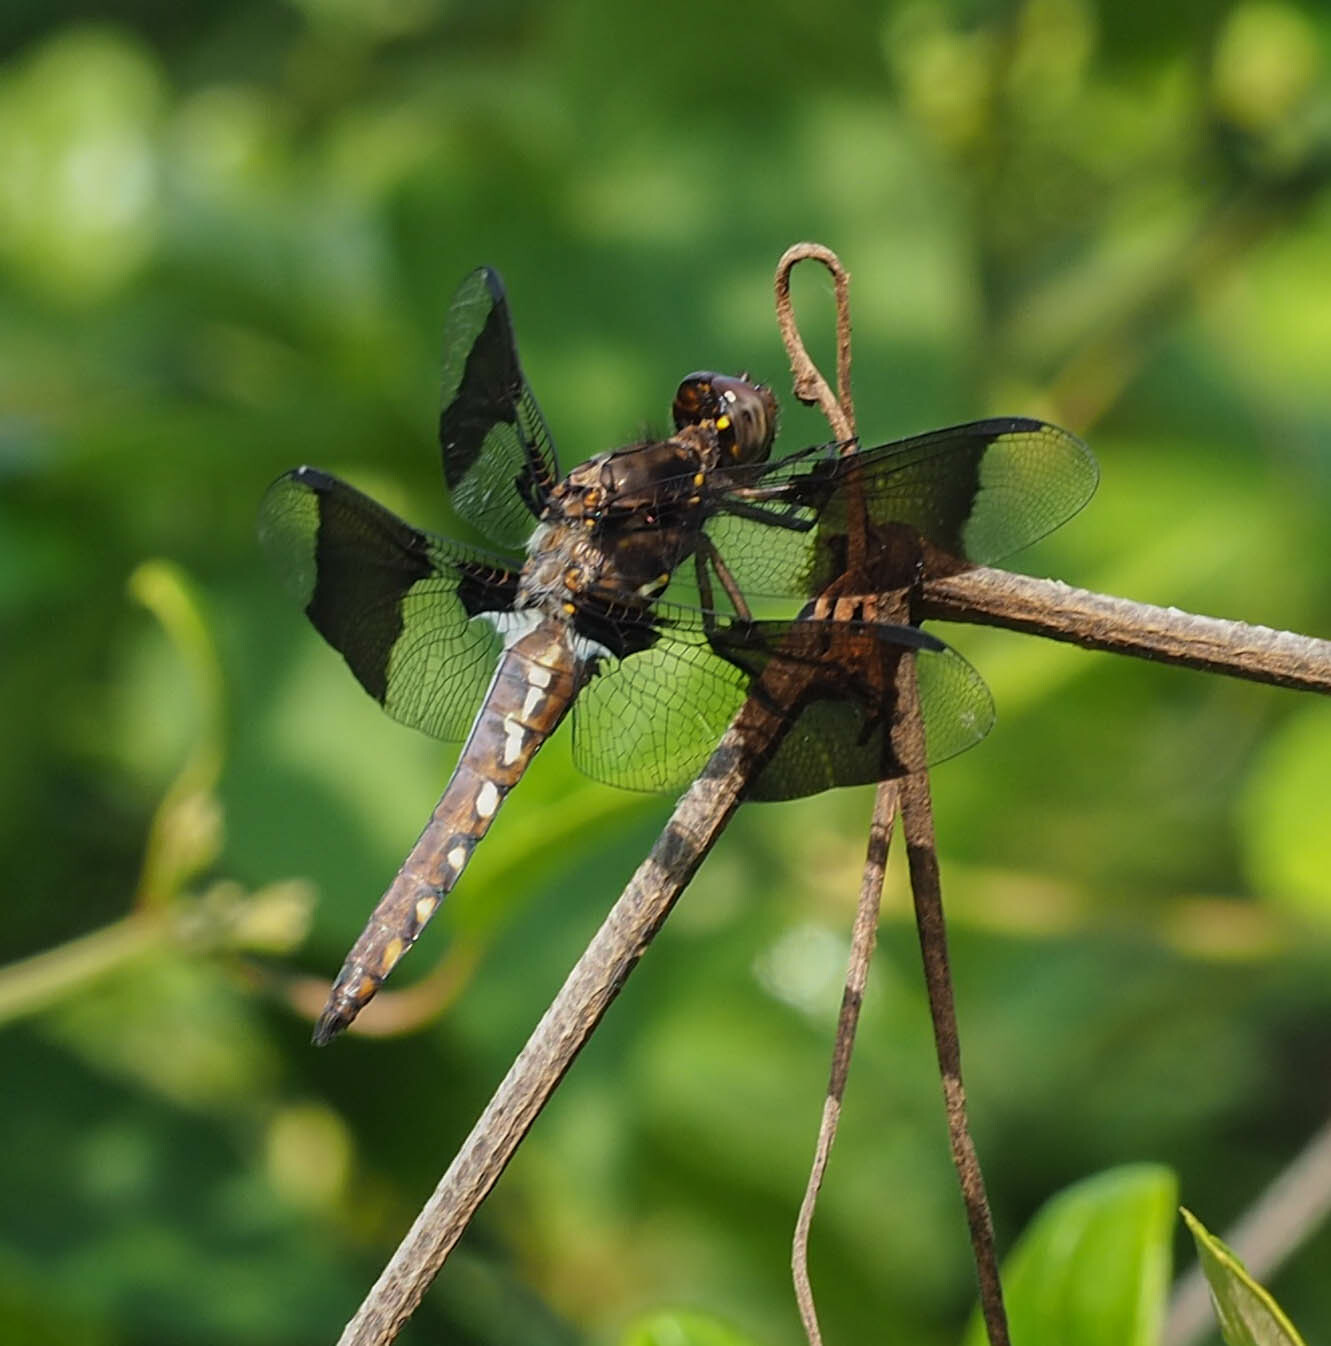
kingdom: Animalia
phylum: Arthropoda
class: Insecta
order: Odonata
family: Libellulidae
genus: Plathemis
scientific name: Plathemis lydia
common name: Common whitetail
